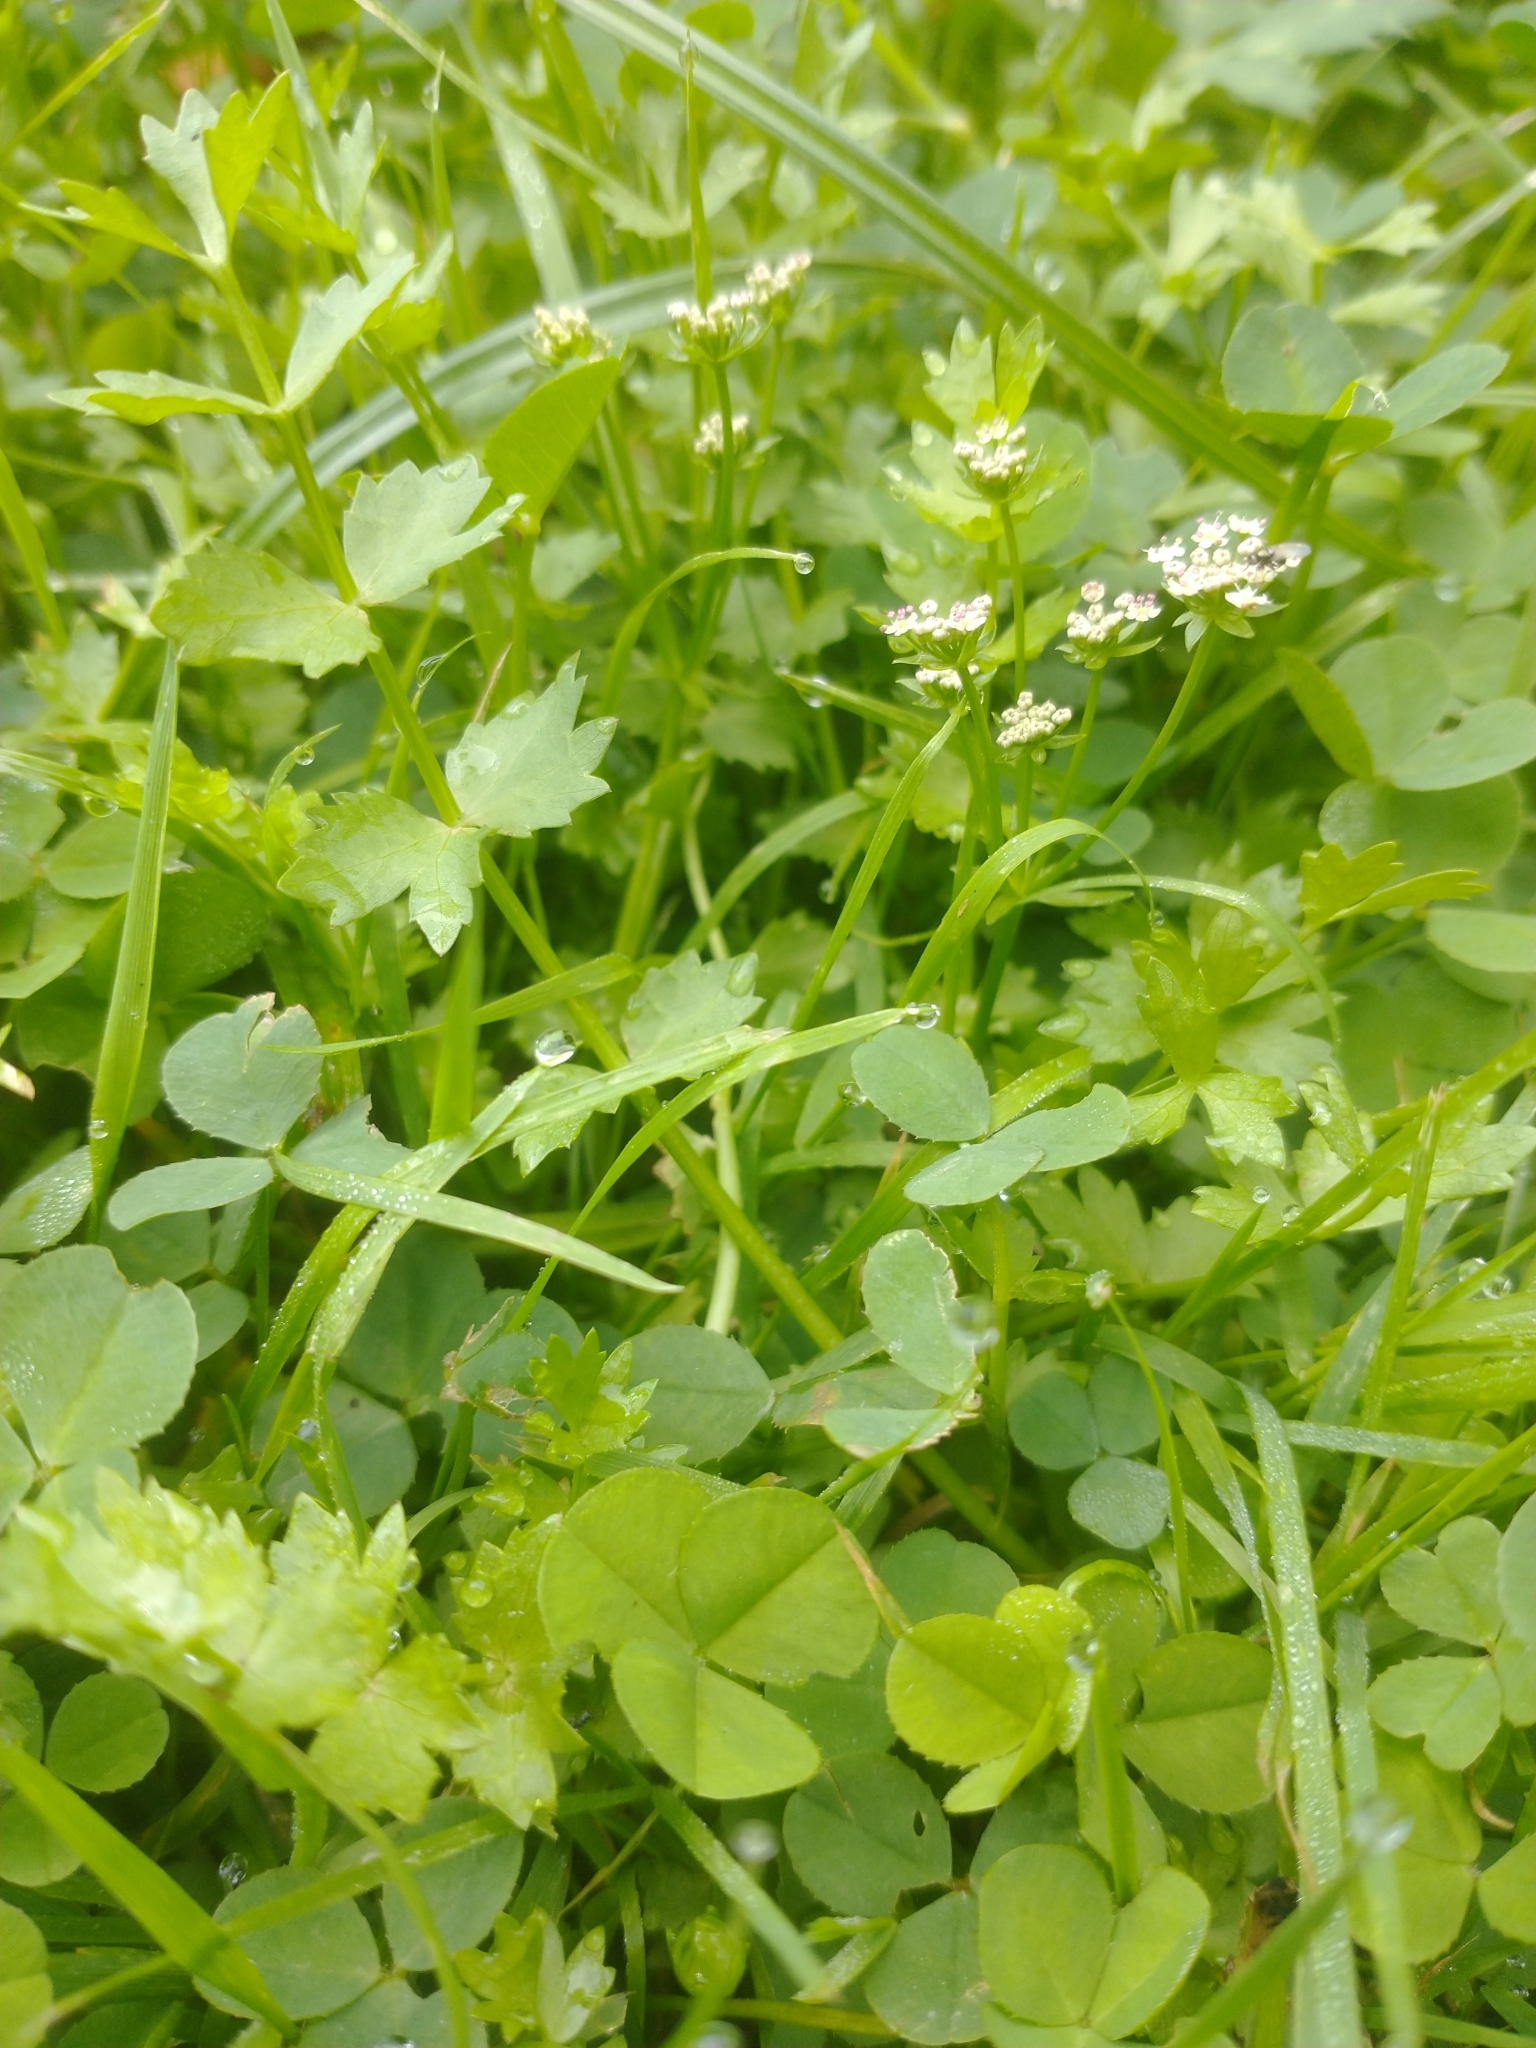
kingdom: Plantae
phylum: Tracheophyta
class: Magnoliopsida
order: Apiales
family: Apiaceae
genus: Helosciadium
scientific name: Helosciadium repens
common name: Creeping marshwort
